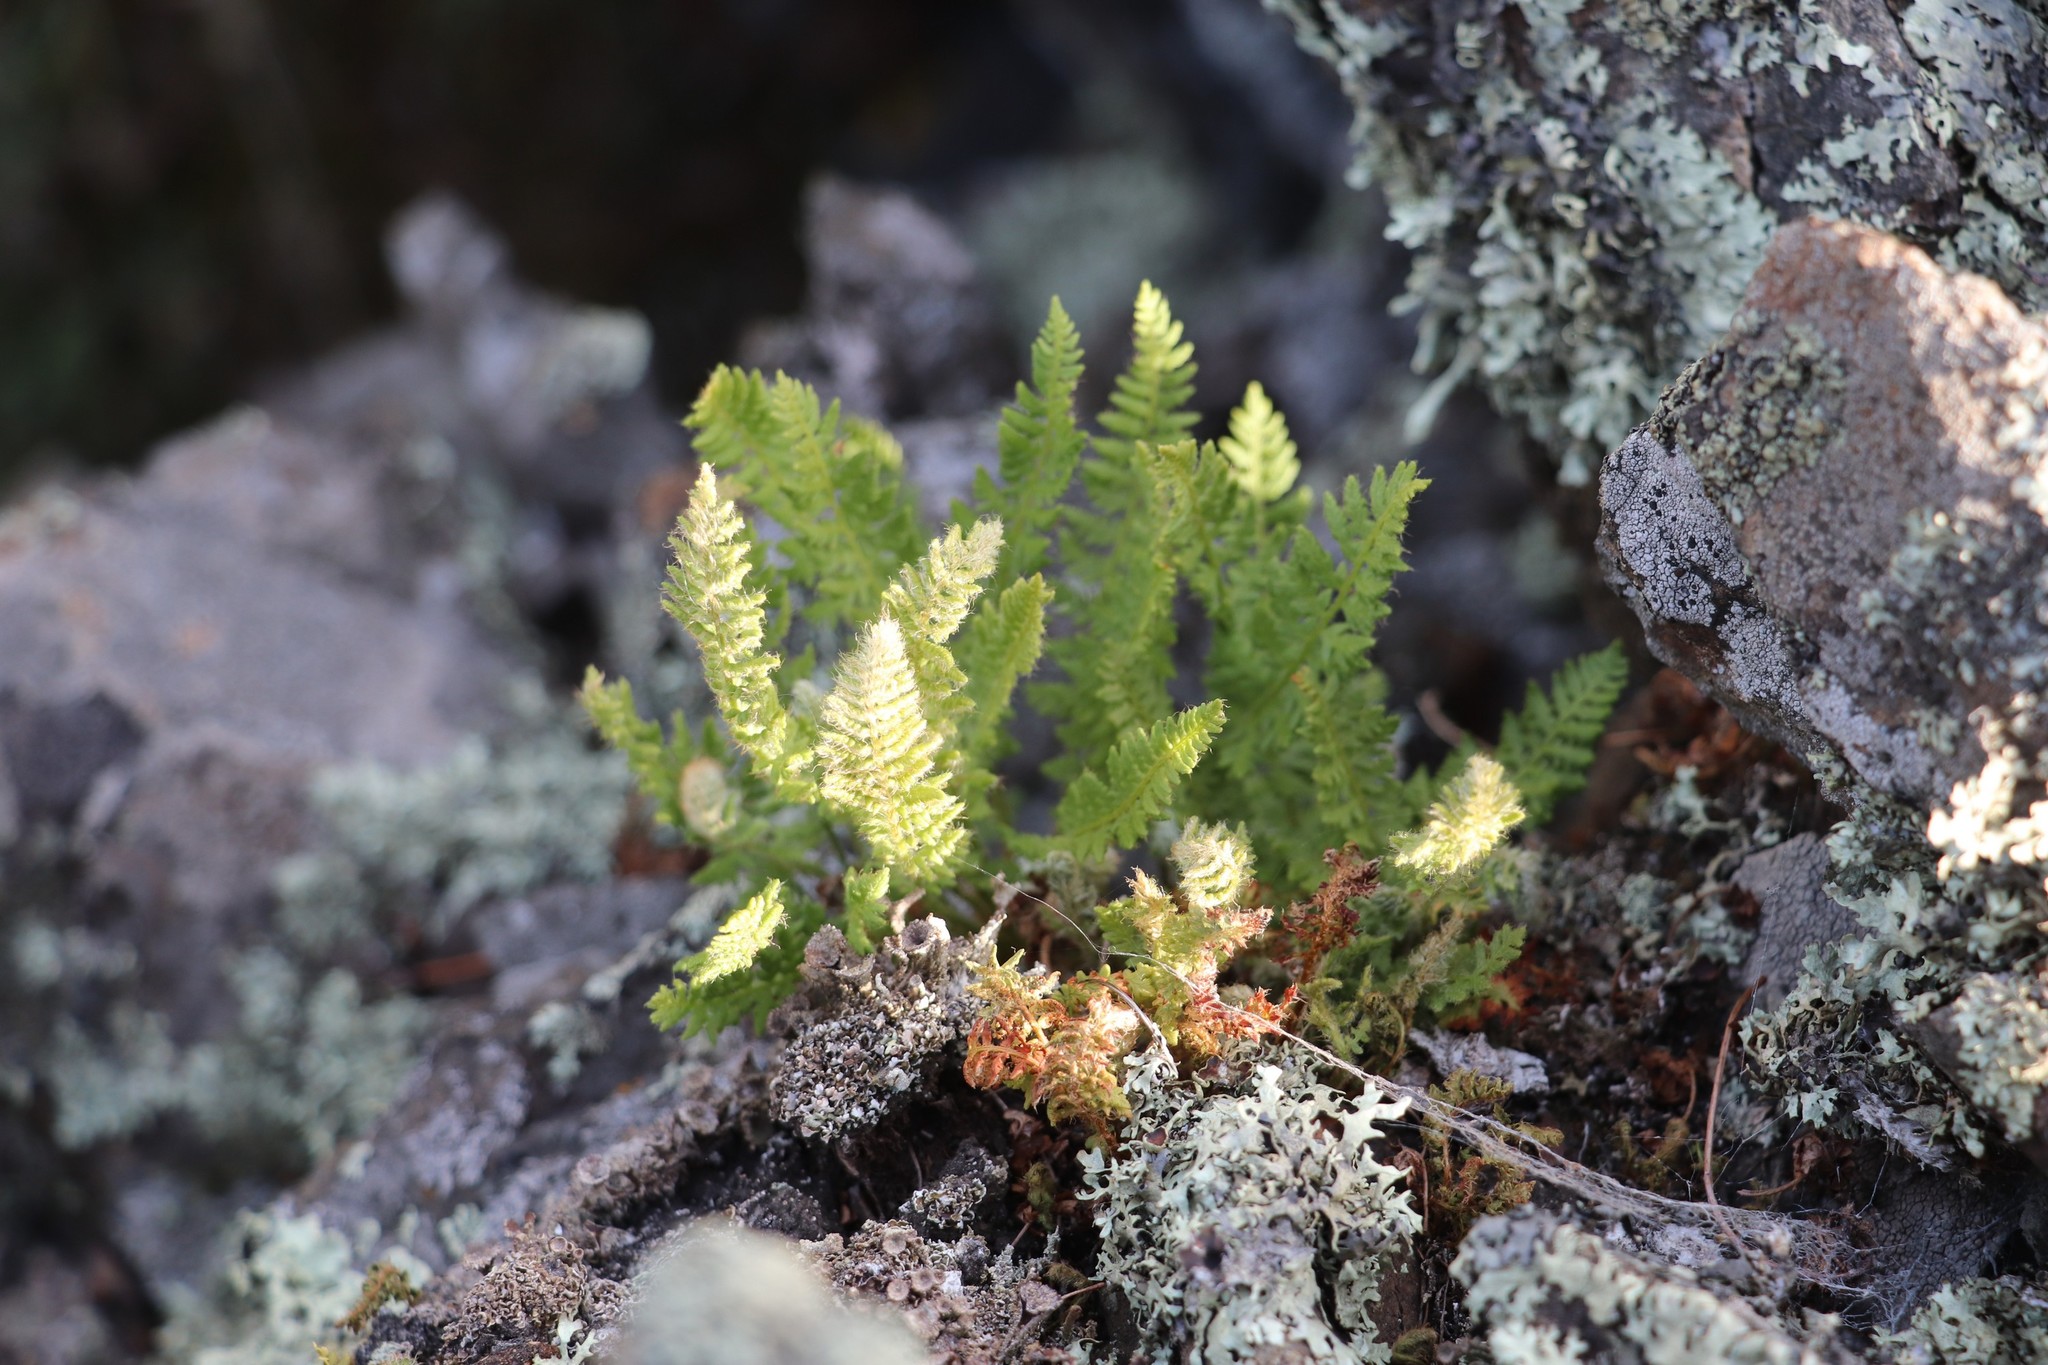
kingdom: Plantae
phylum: Tracheophyta
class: Polypodiopsida
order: Polypodiales
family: Woodsiaceae
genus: Woodsia
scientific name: Woodsia ilvensis
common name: Fragrant woodsia
